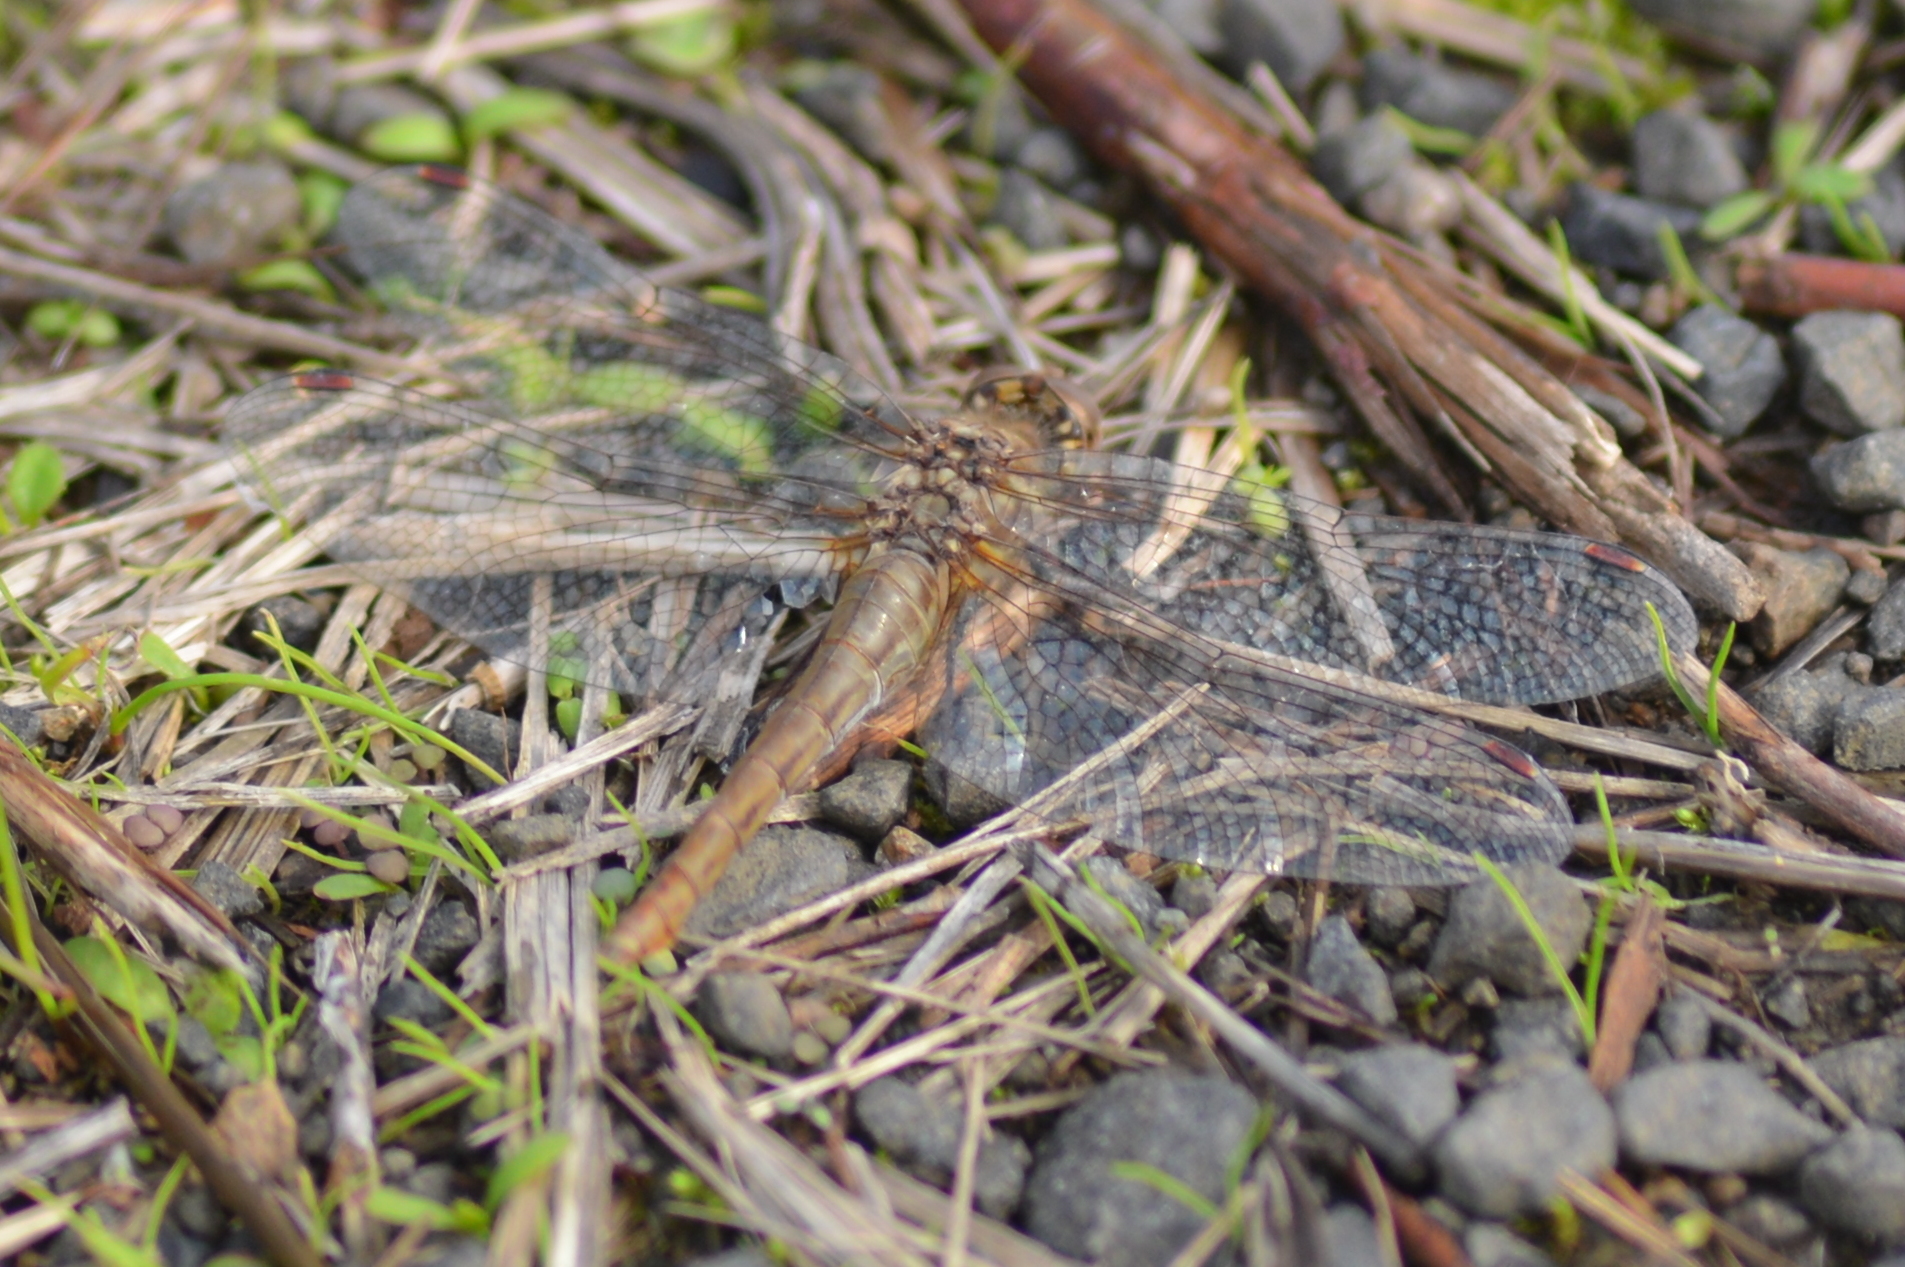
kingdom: Animalia
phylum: Arthropoda
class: Insecta
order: Odonata
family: Libellulidae
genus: Sympetrum
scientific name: Sympetrum pallipes
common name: Striped meadowhawk
